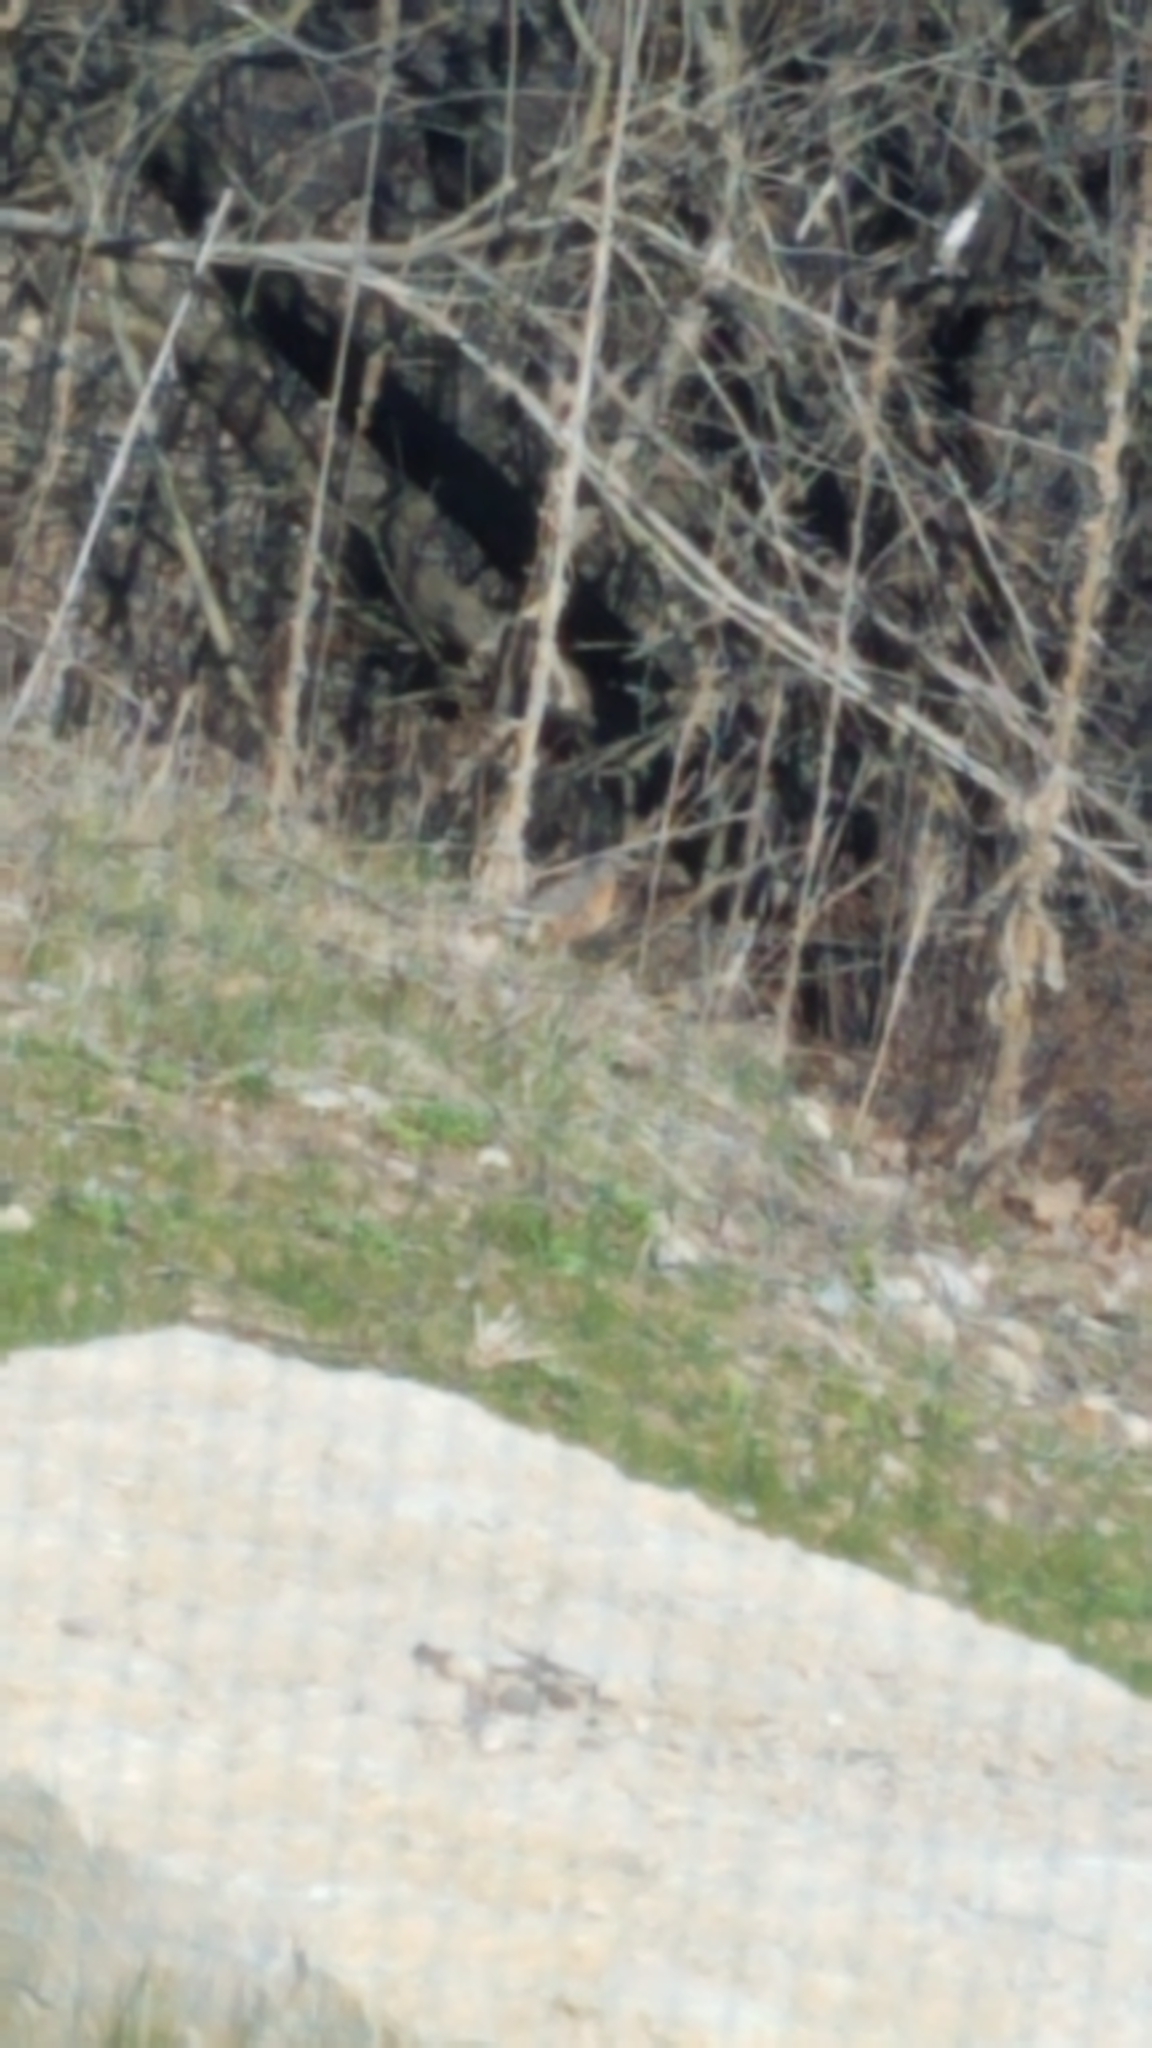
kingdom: Animalia
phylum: Chordata
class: Aves
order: Passeriformes
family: Turdidae
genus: Turdus
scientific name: Turdus migratorius
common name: American robin
